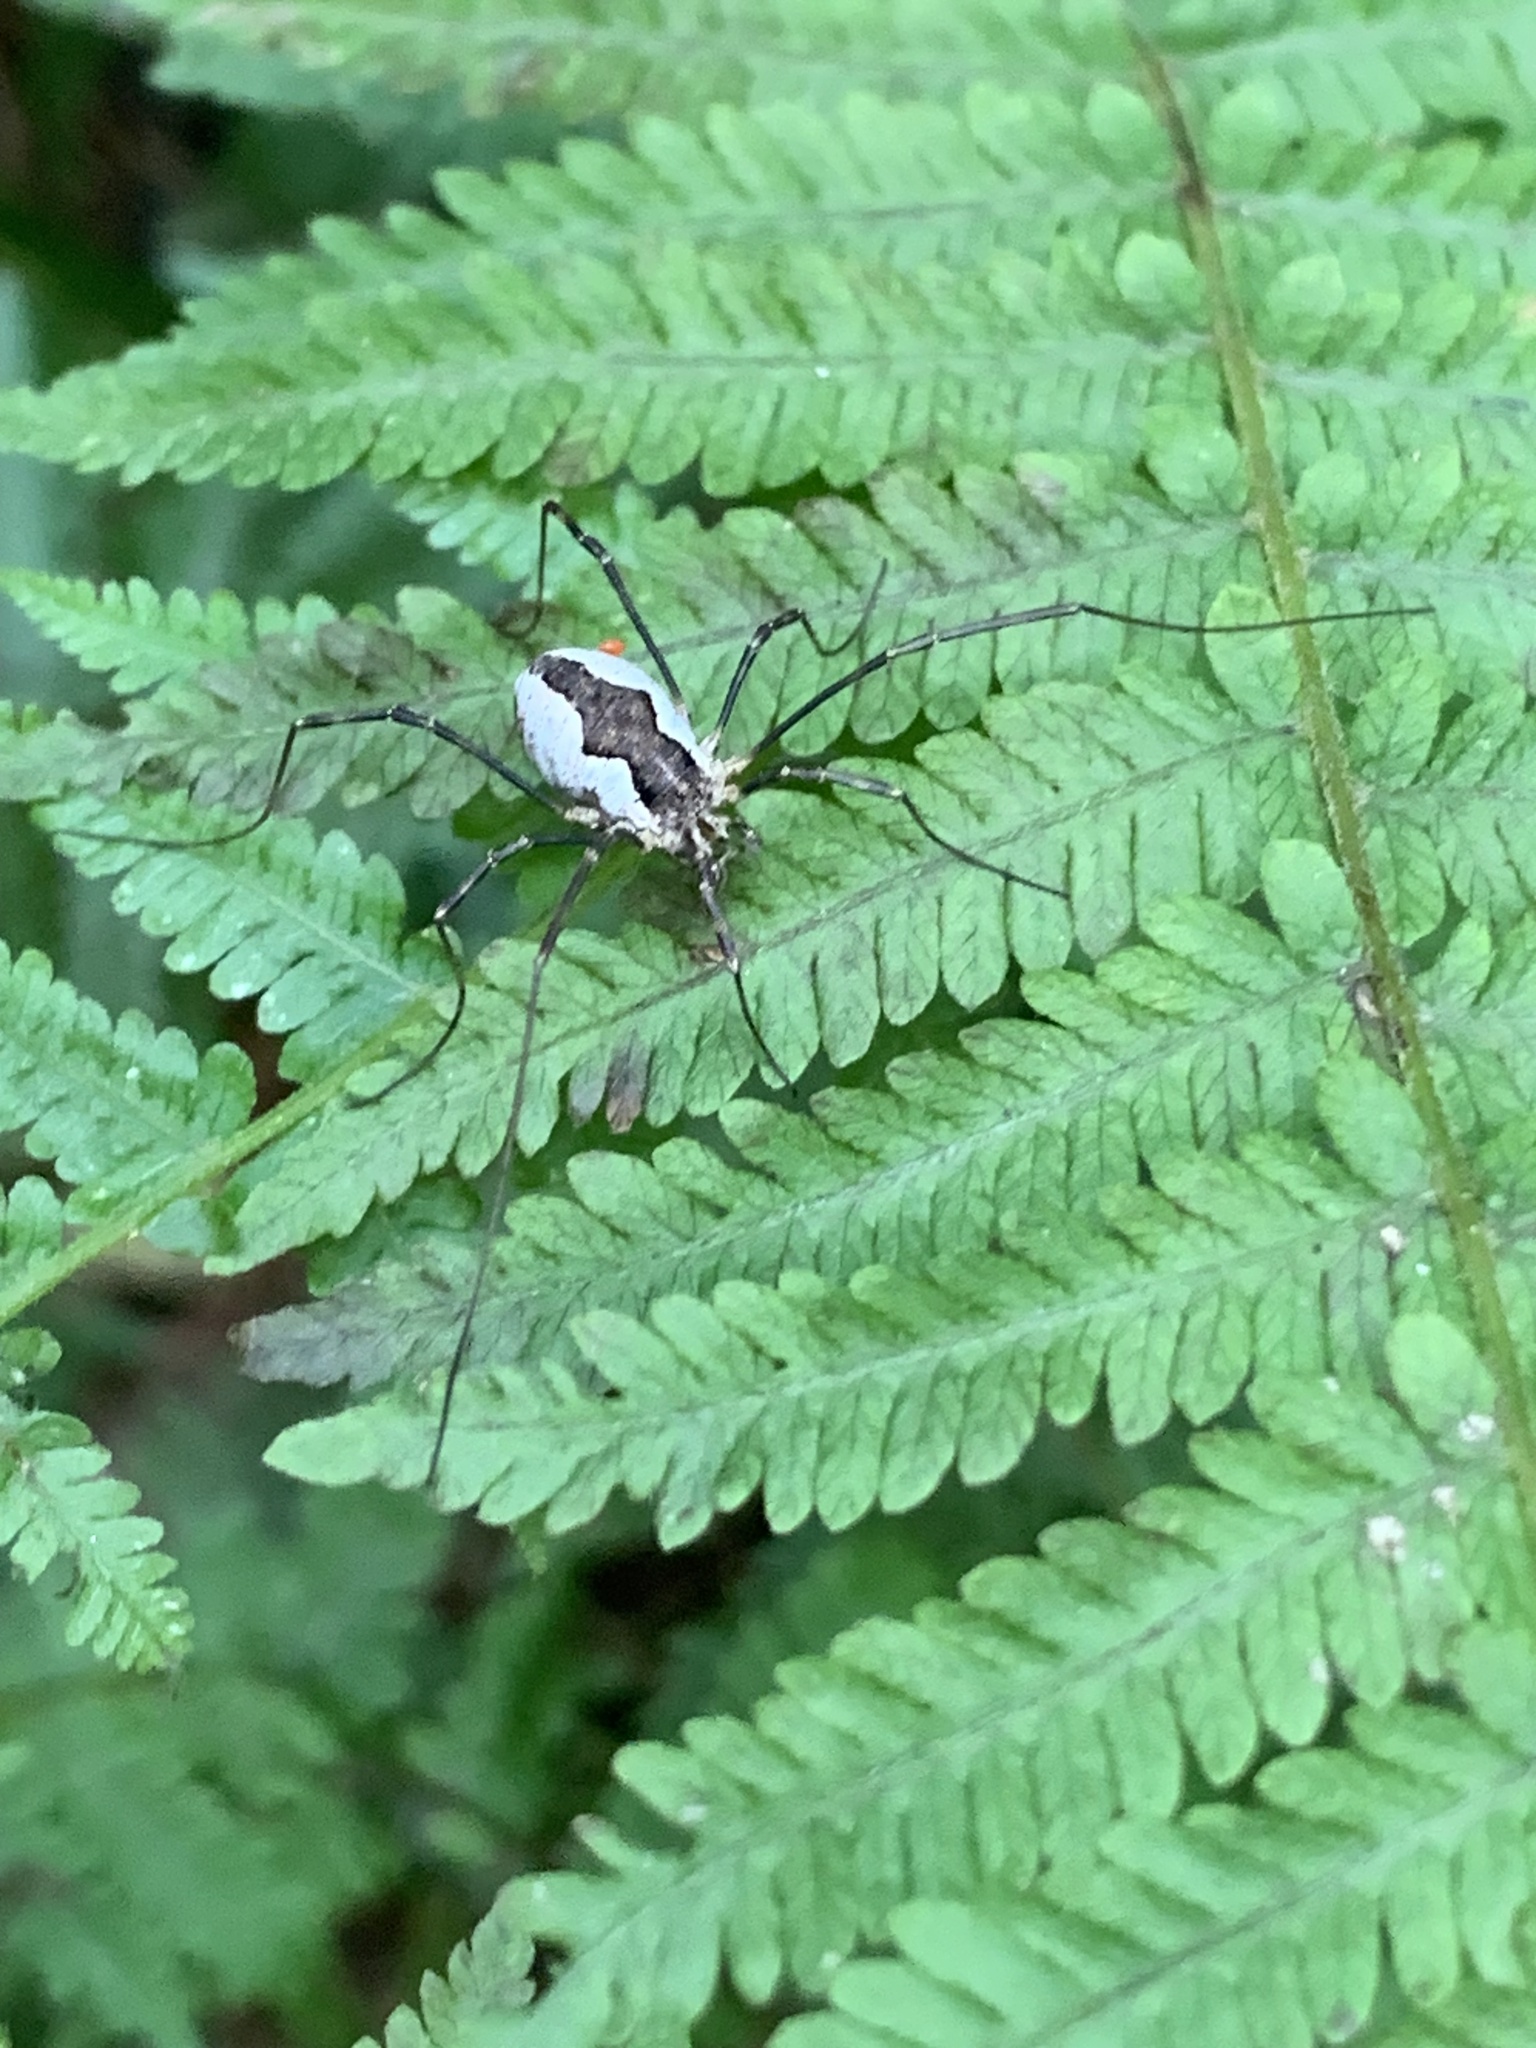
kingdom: Animalia
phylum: Arthropoda
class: Arachnida
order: Opiliones
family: Phalangiidae
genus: Mitopus
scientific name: Mitopus morio
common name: Saddleback harvestman
